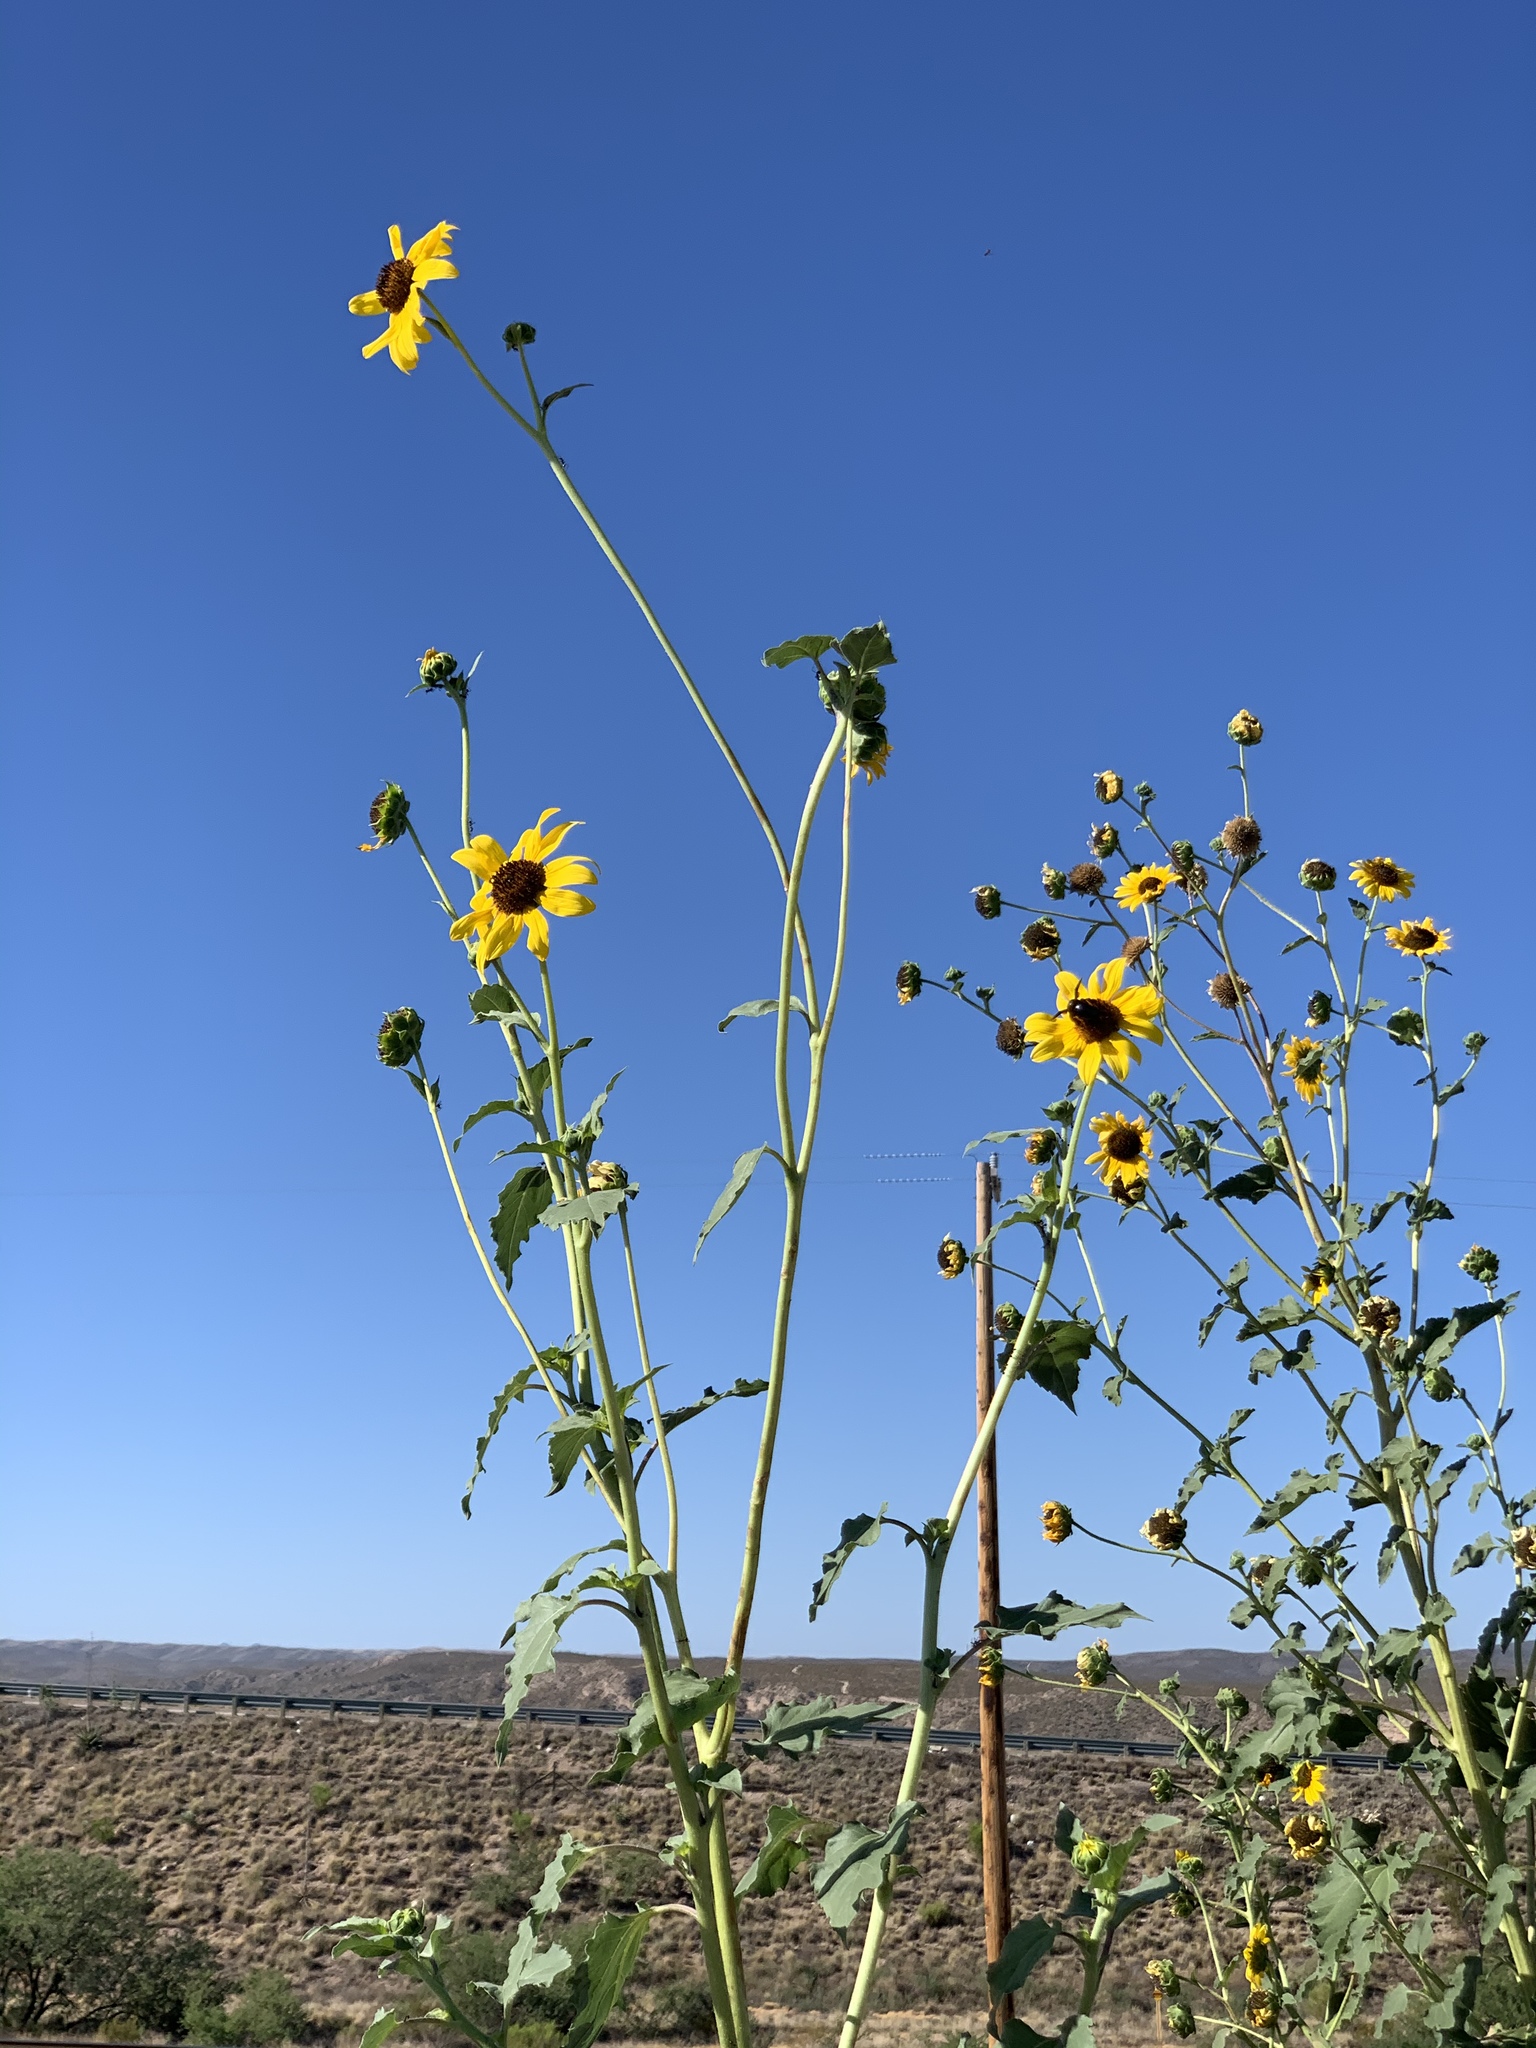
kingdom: Plantae
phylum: Tracheophyta
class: Magnoliopsida
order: Asterales
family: Asteraceae
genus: Helianthus
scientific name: Helianthus annuus
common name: Sunflower
